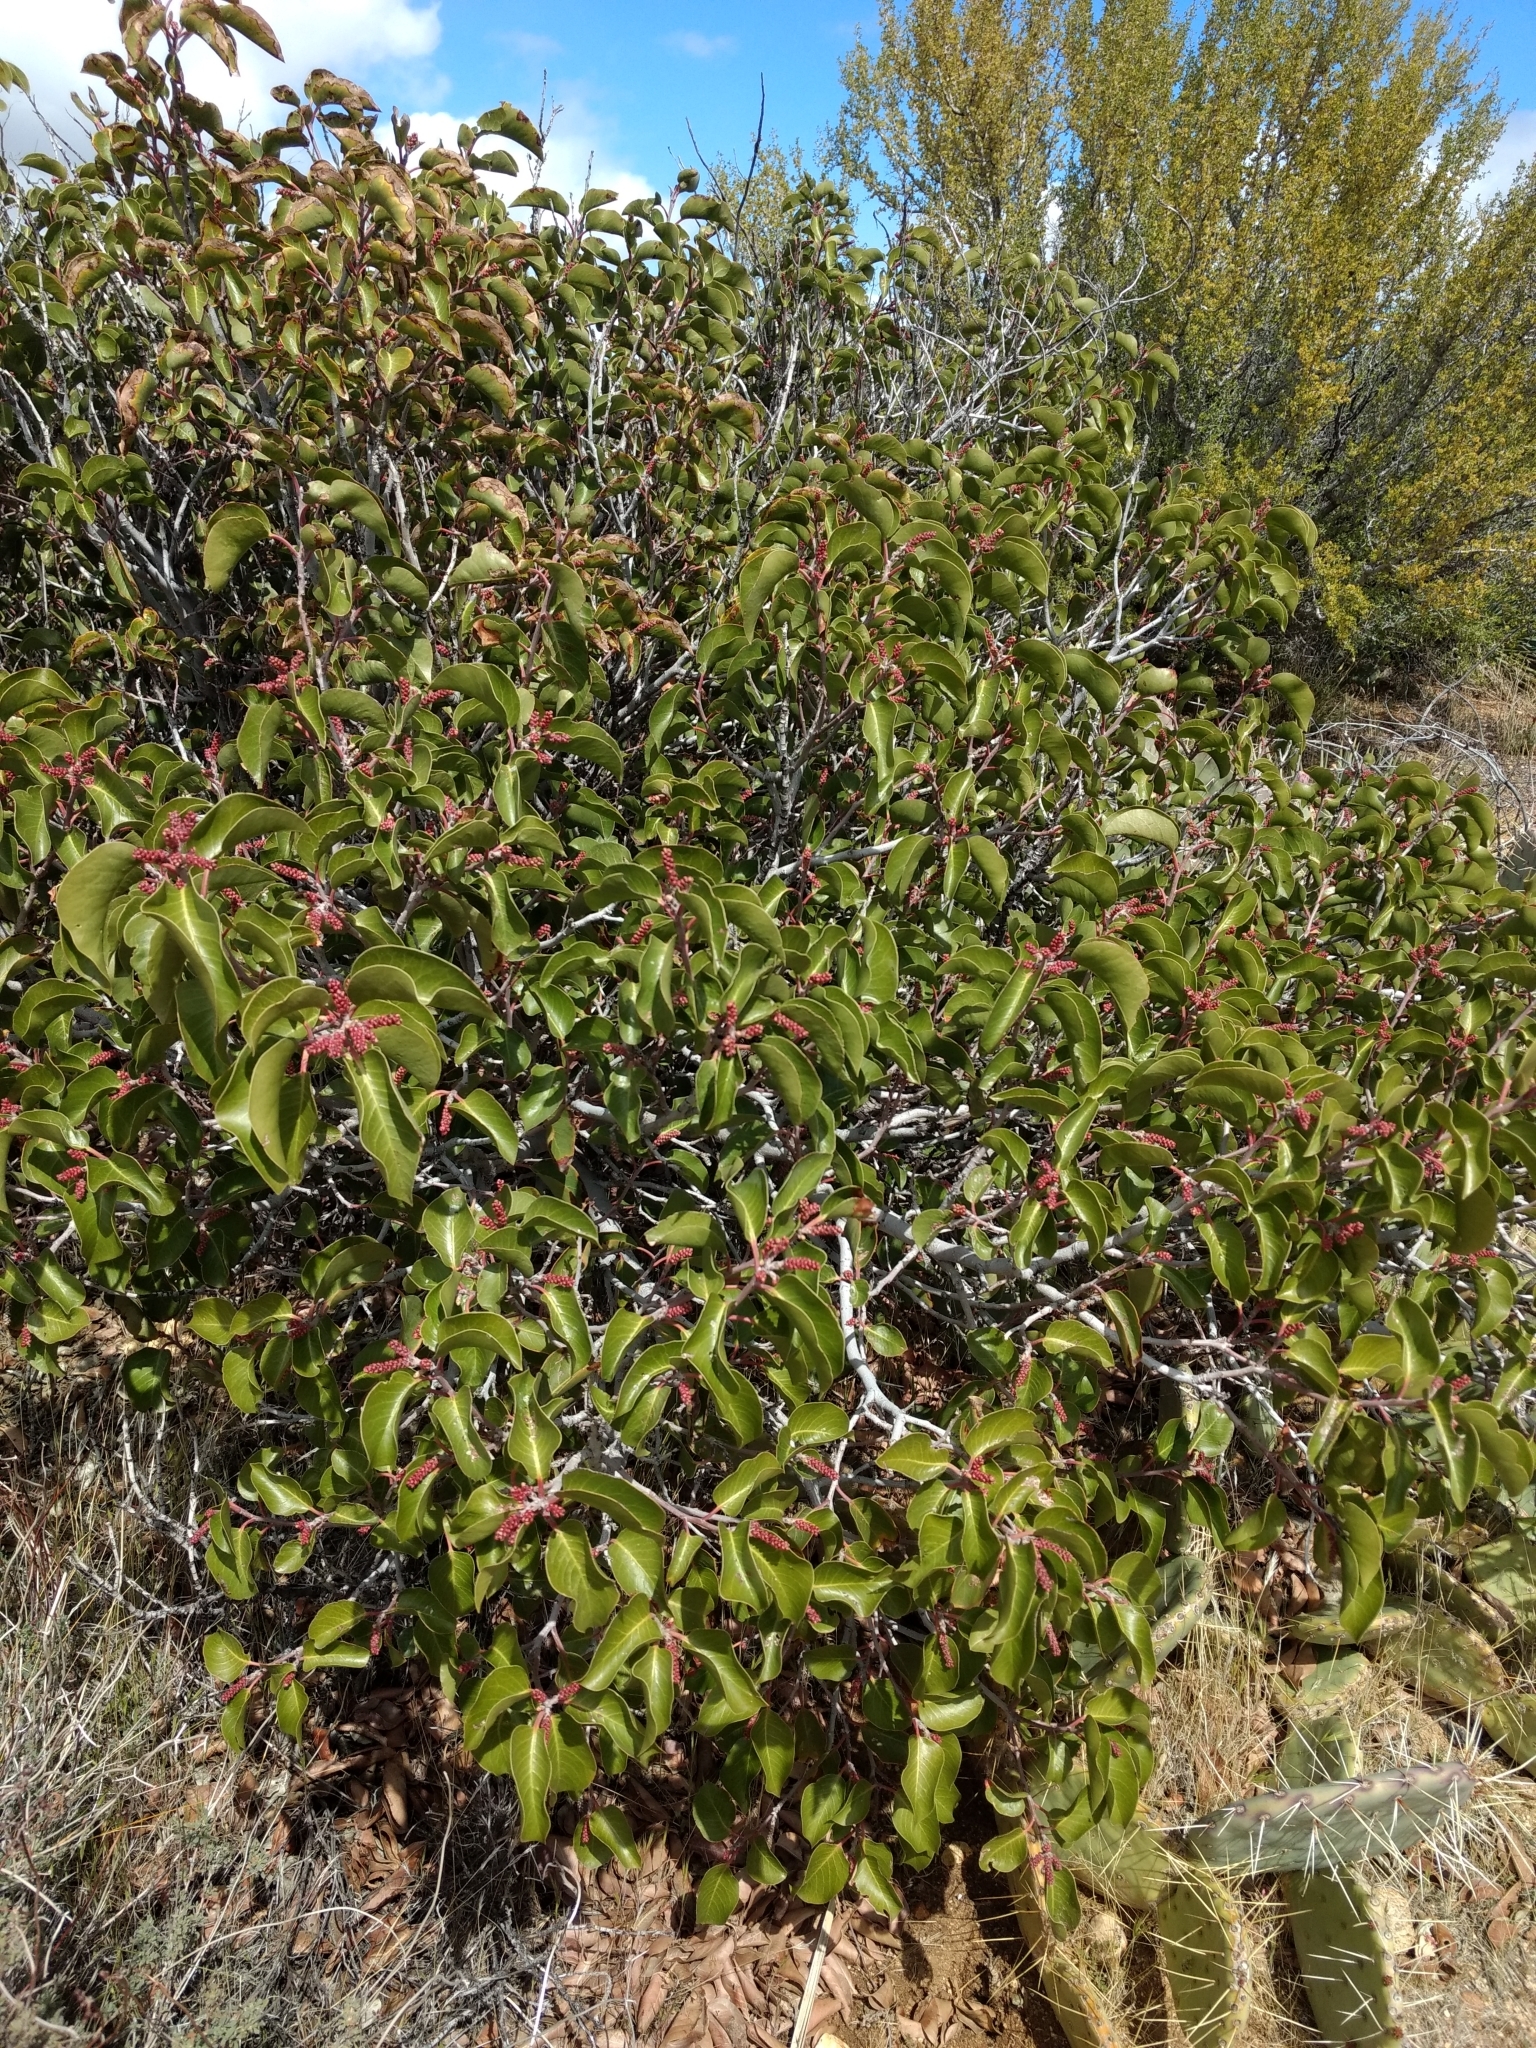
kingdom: Plantae
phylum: Tracheophyta
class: Magnoliopsida
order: Sapindales
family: Anacardiaceae
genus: Rhus
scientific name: Rhus ovata
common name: Sugar sumac
